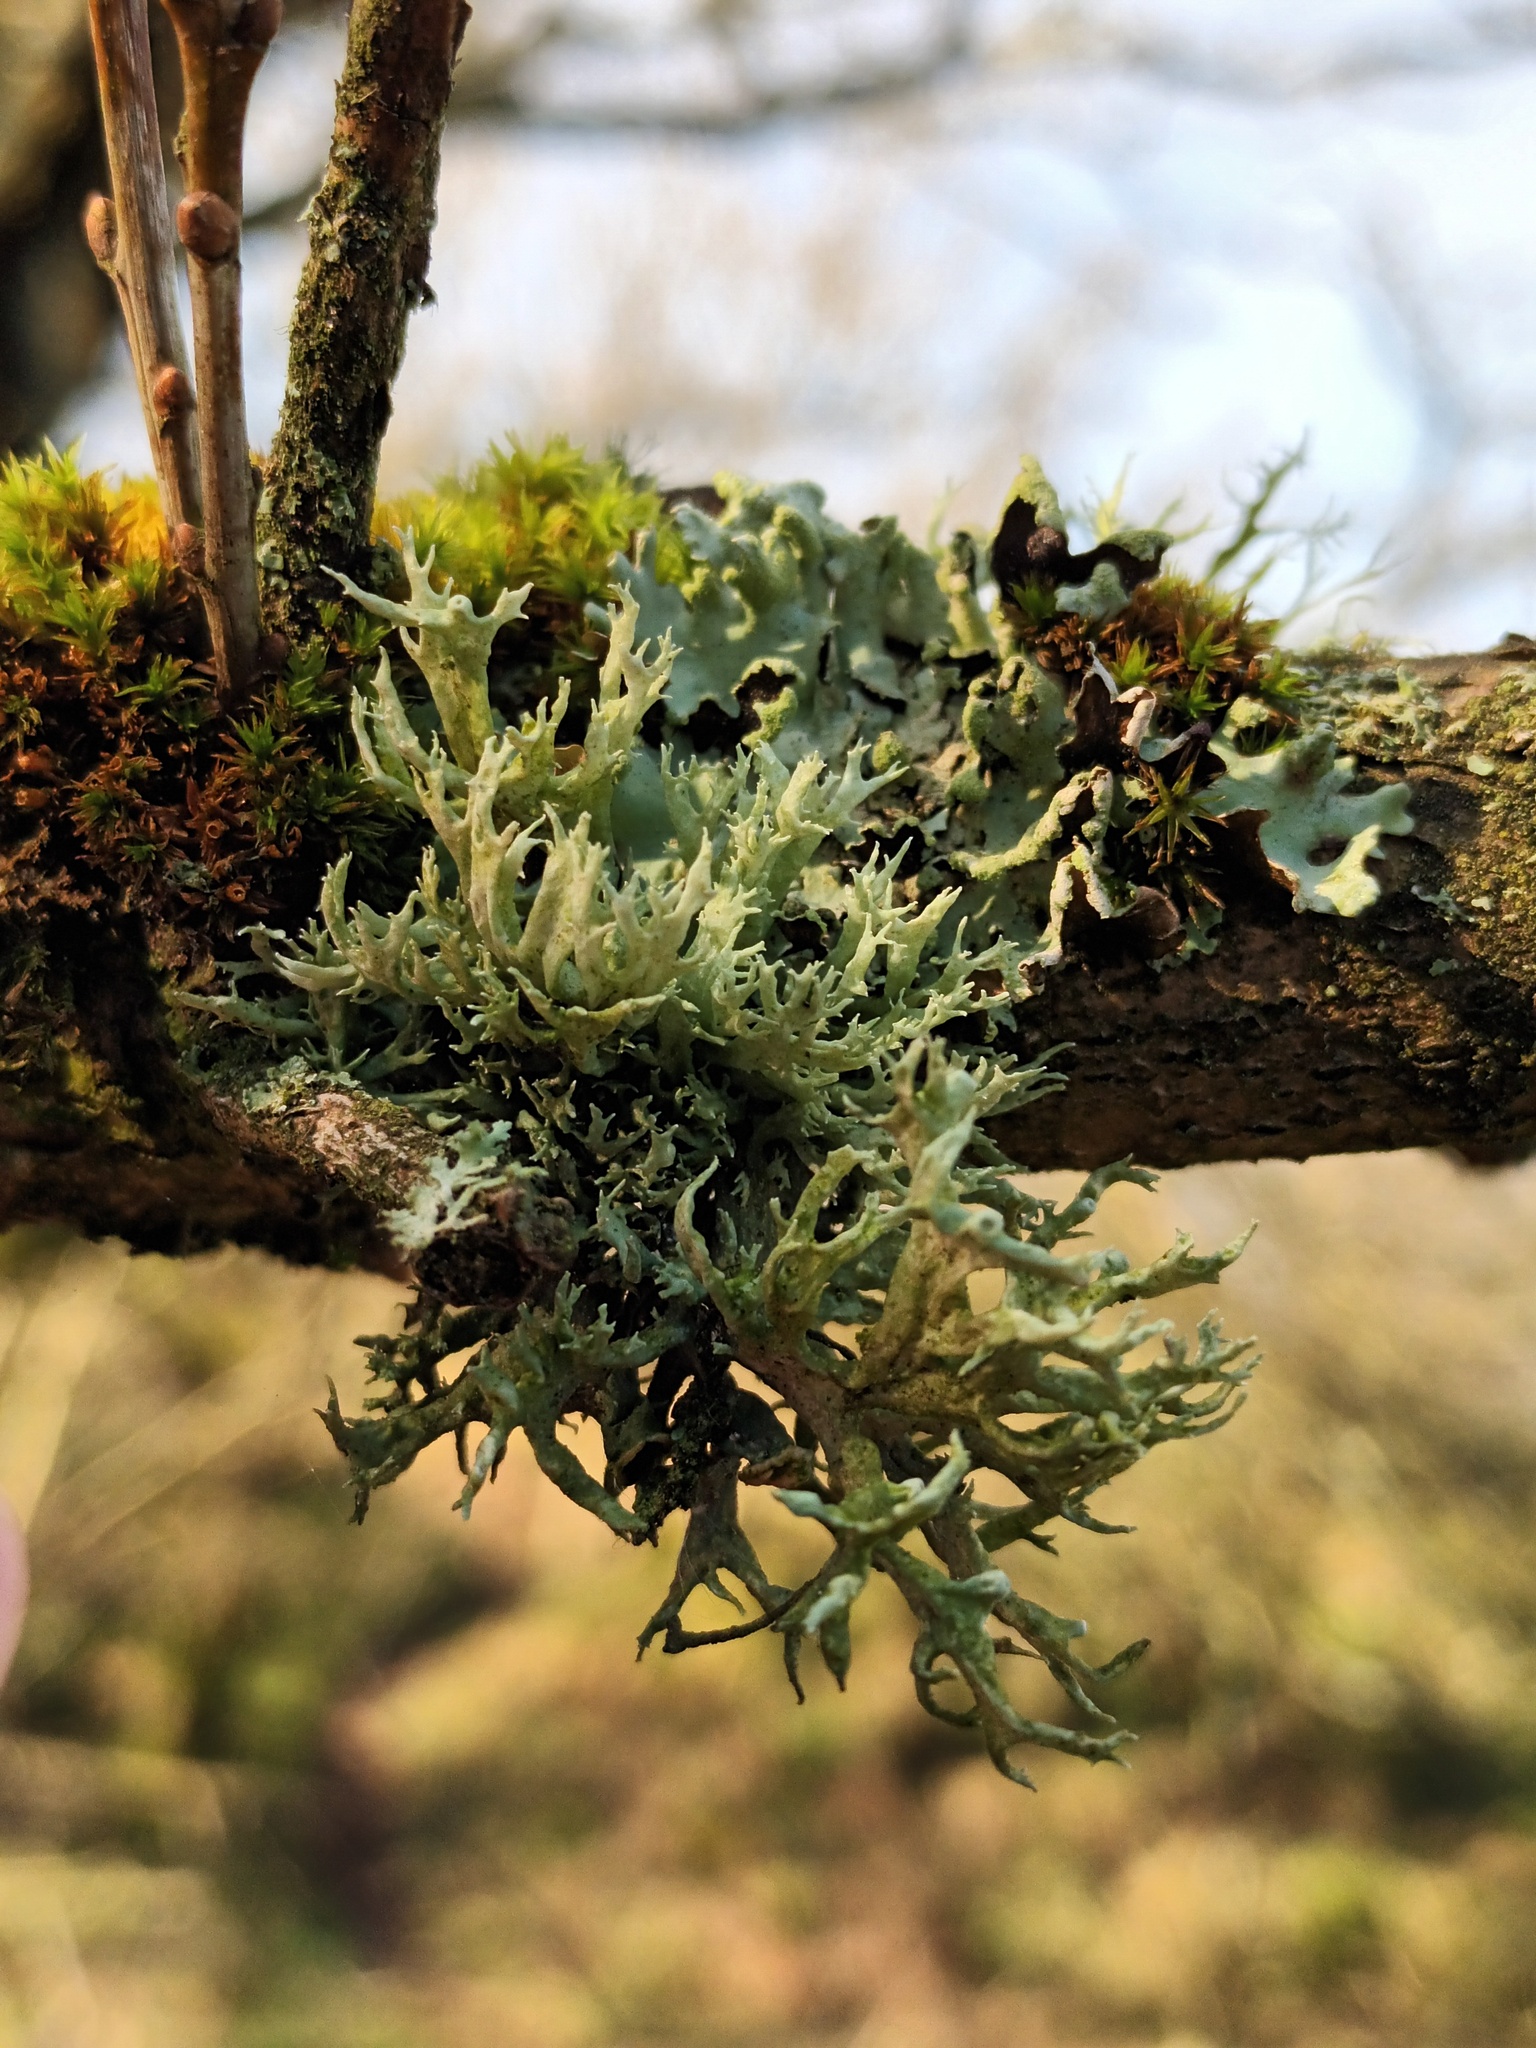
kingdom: Fungi
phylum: Ascomycota
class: Lecanoromycetes
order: Lecanorales
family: Parmeliaceae
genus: Evernia
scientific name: Evernia prunastri
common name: Oak moss
